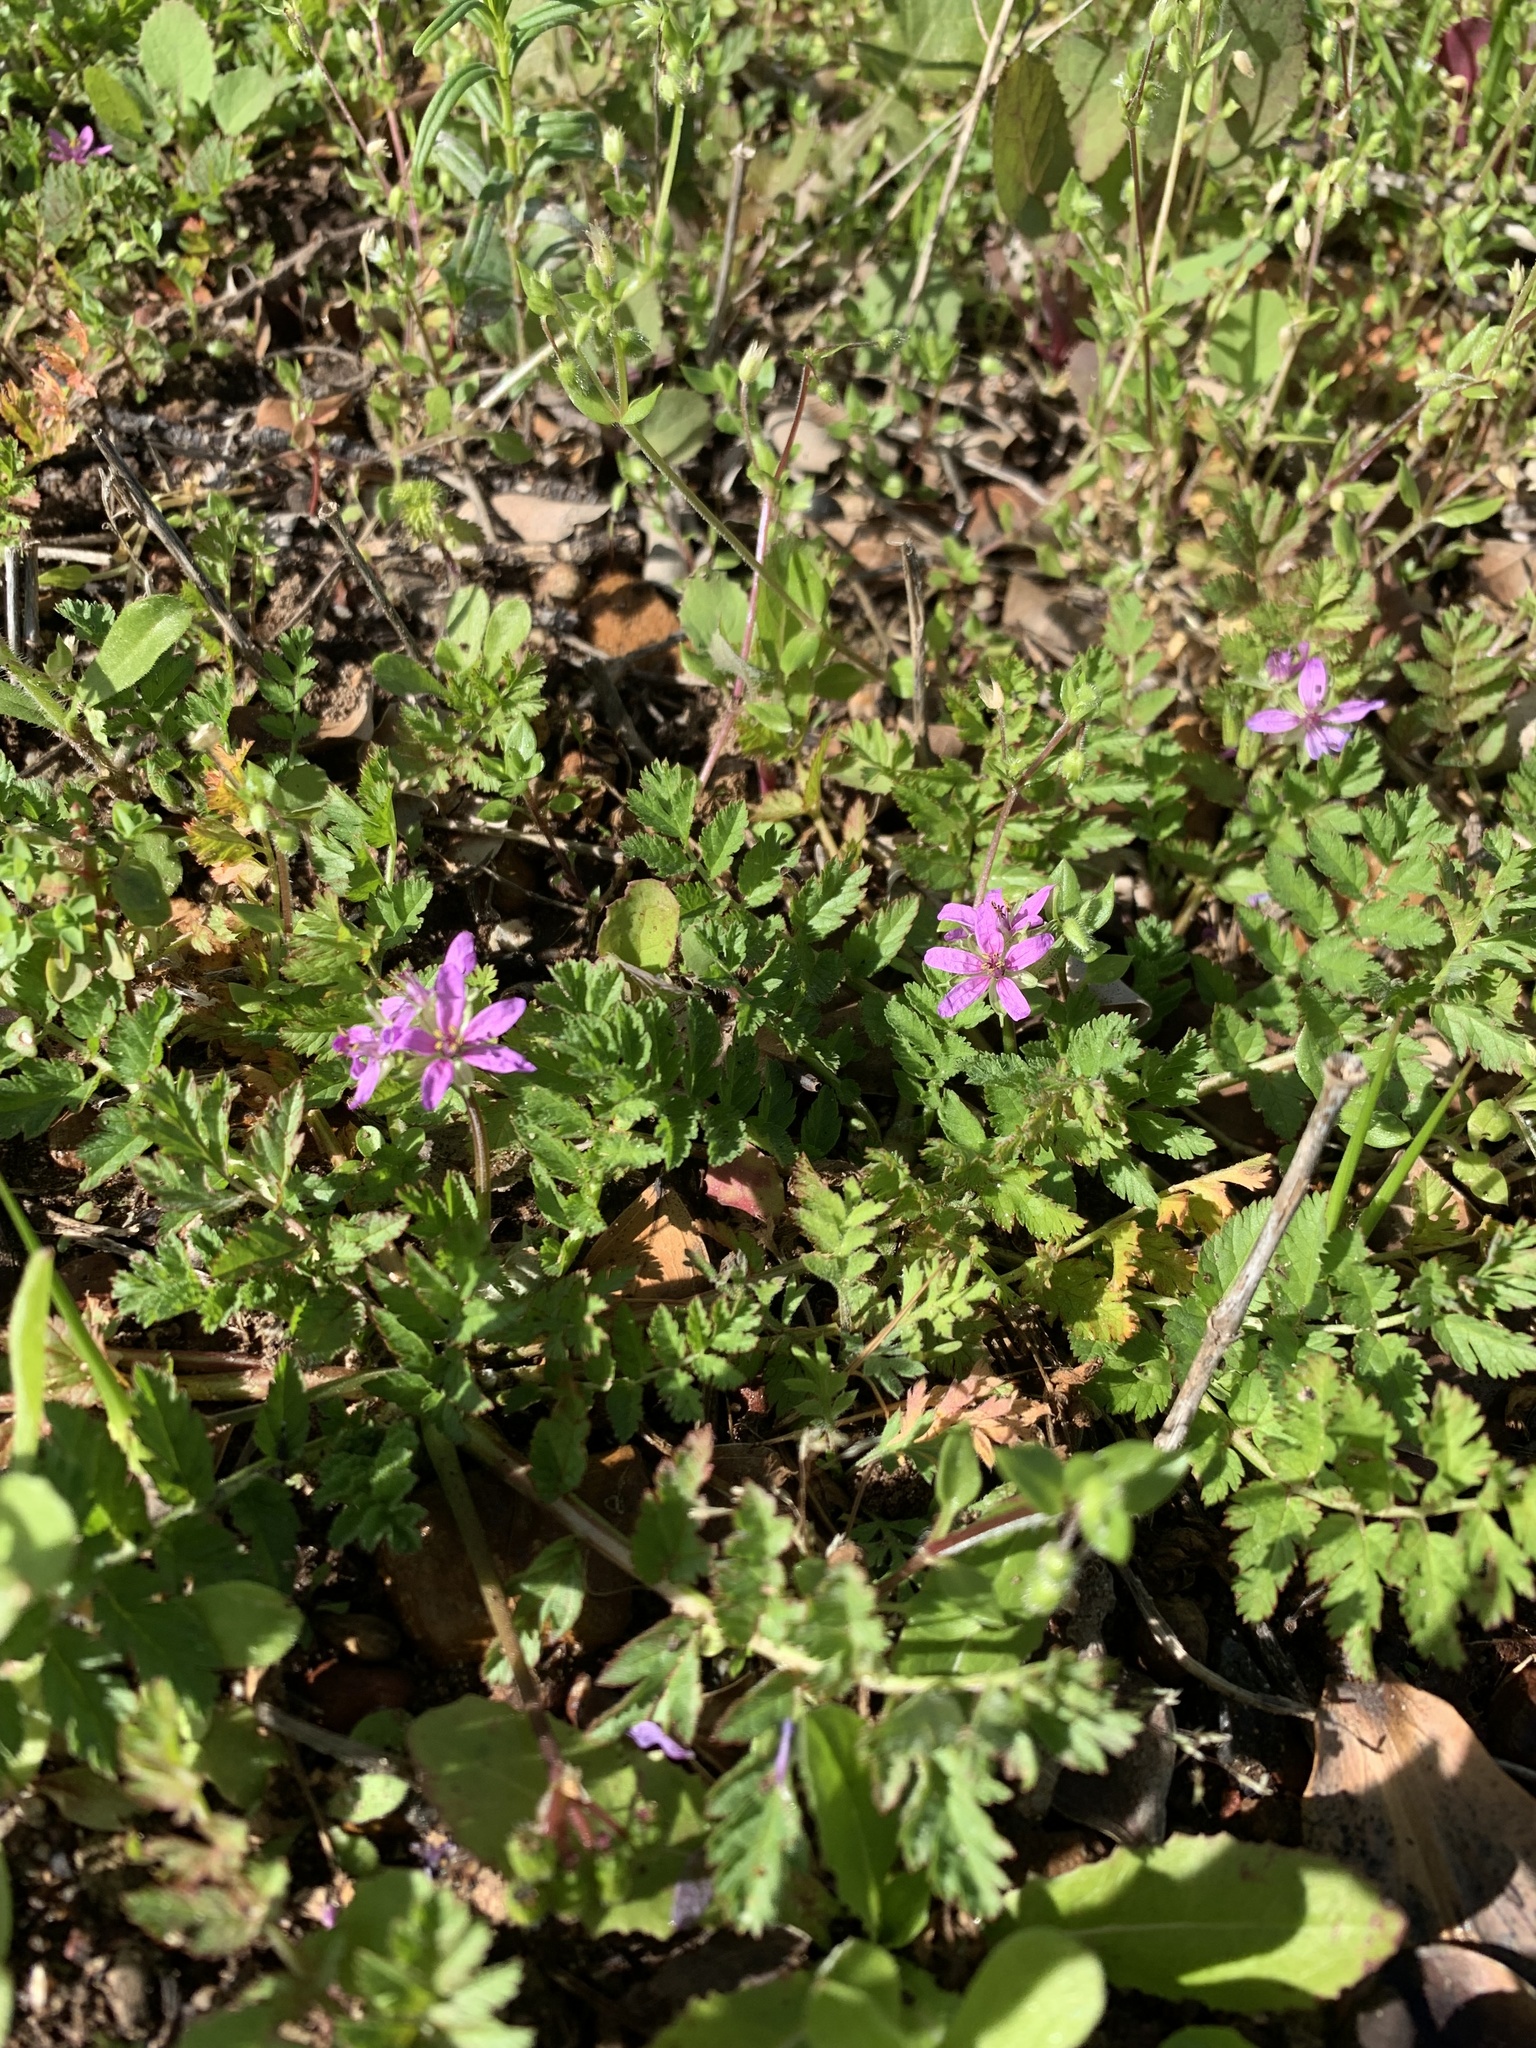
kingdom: Plantae
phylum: Tracheophyta
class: Magnoliopsida
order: Geraniales
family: Geraniaceae
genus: Erodium
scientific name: Erodium moschatum
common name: Musk stork's-bill
